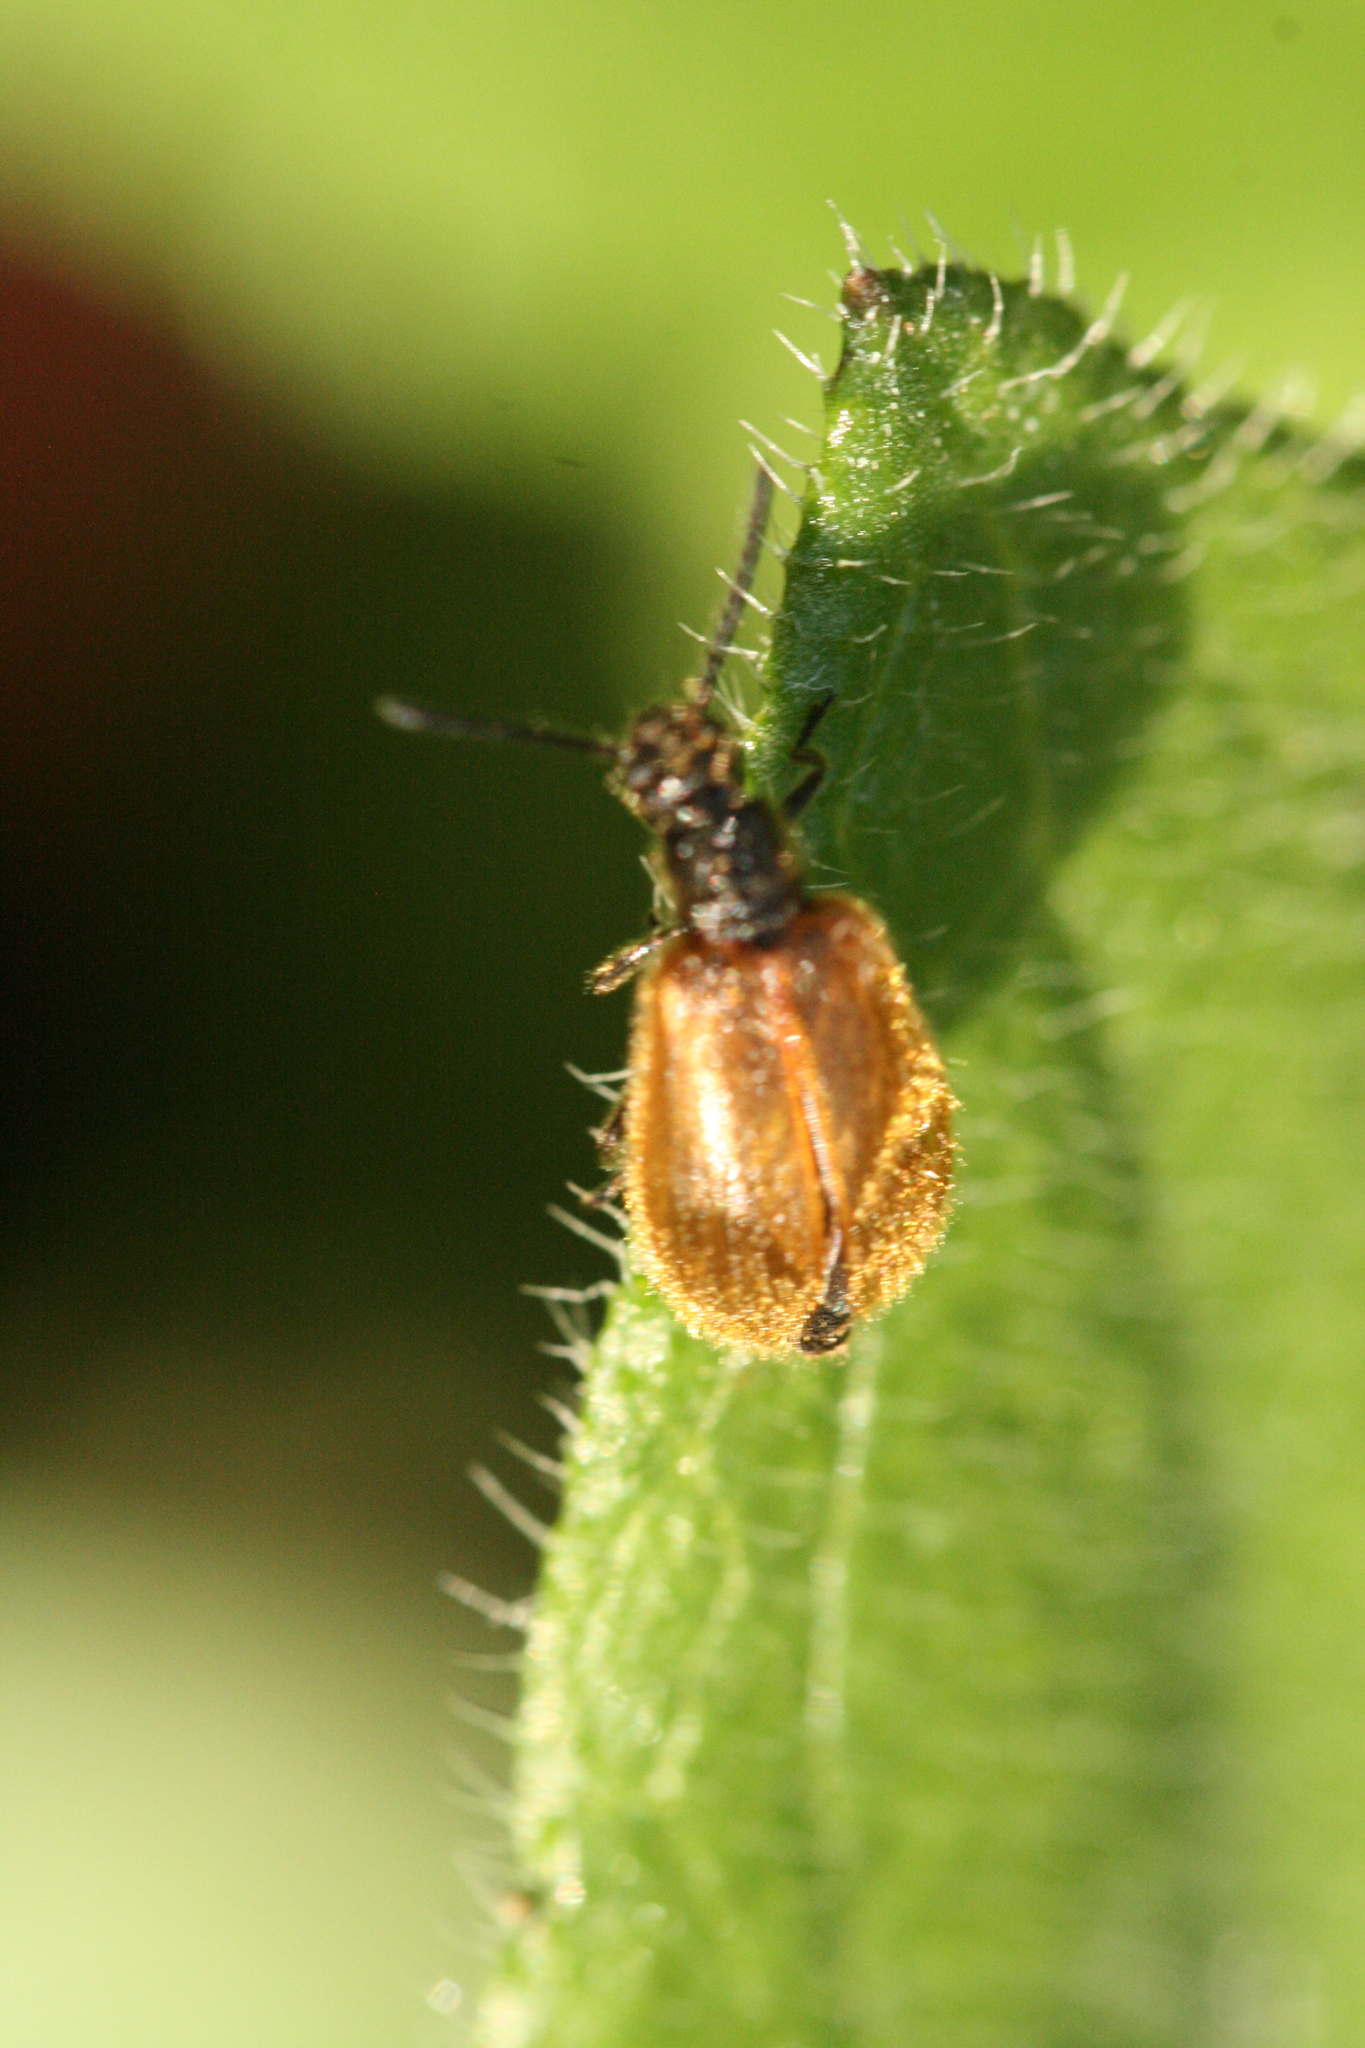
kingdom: Animalia
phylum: Arthropoda
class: Insecta
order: Coleoptera
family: Tenebrionidae
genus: Lagria
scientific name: Lagria hirta
